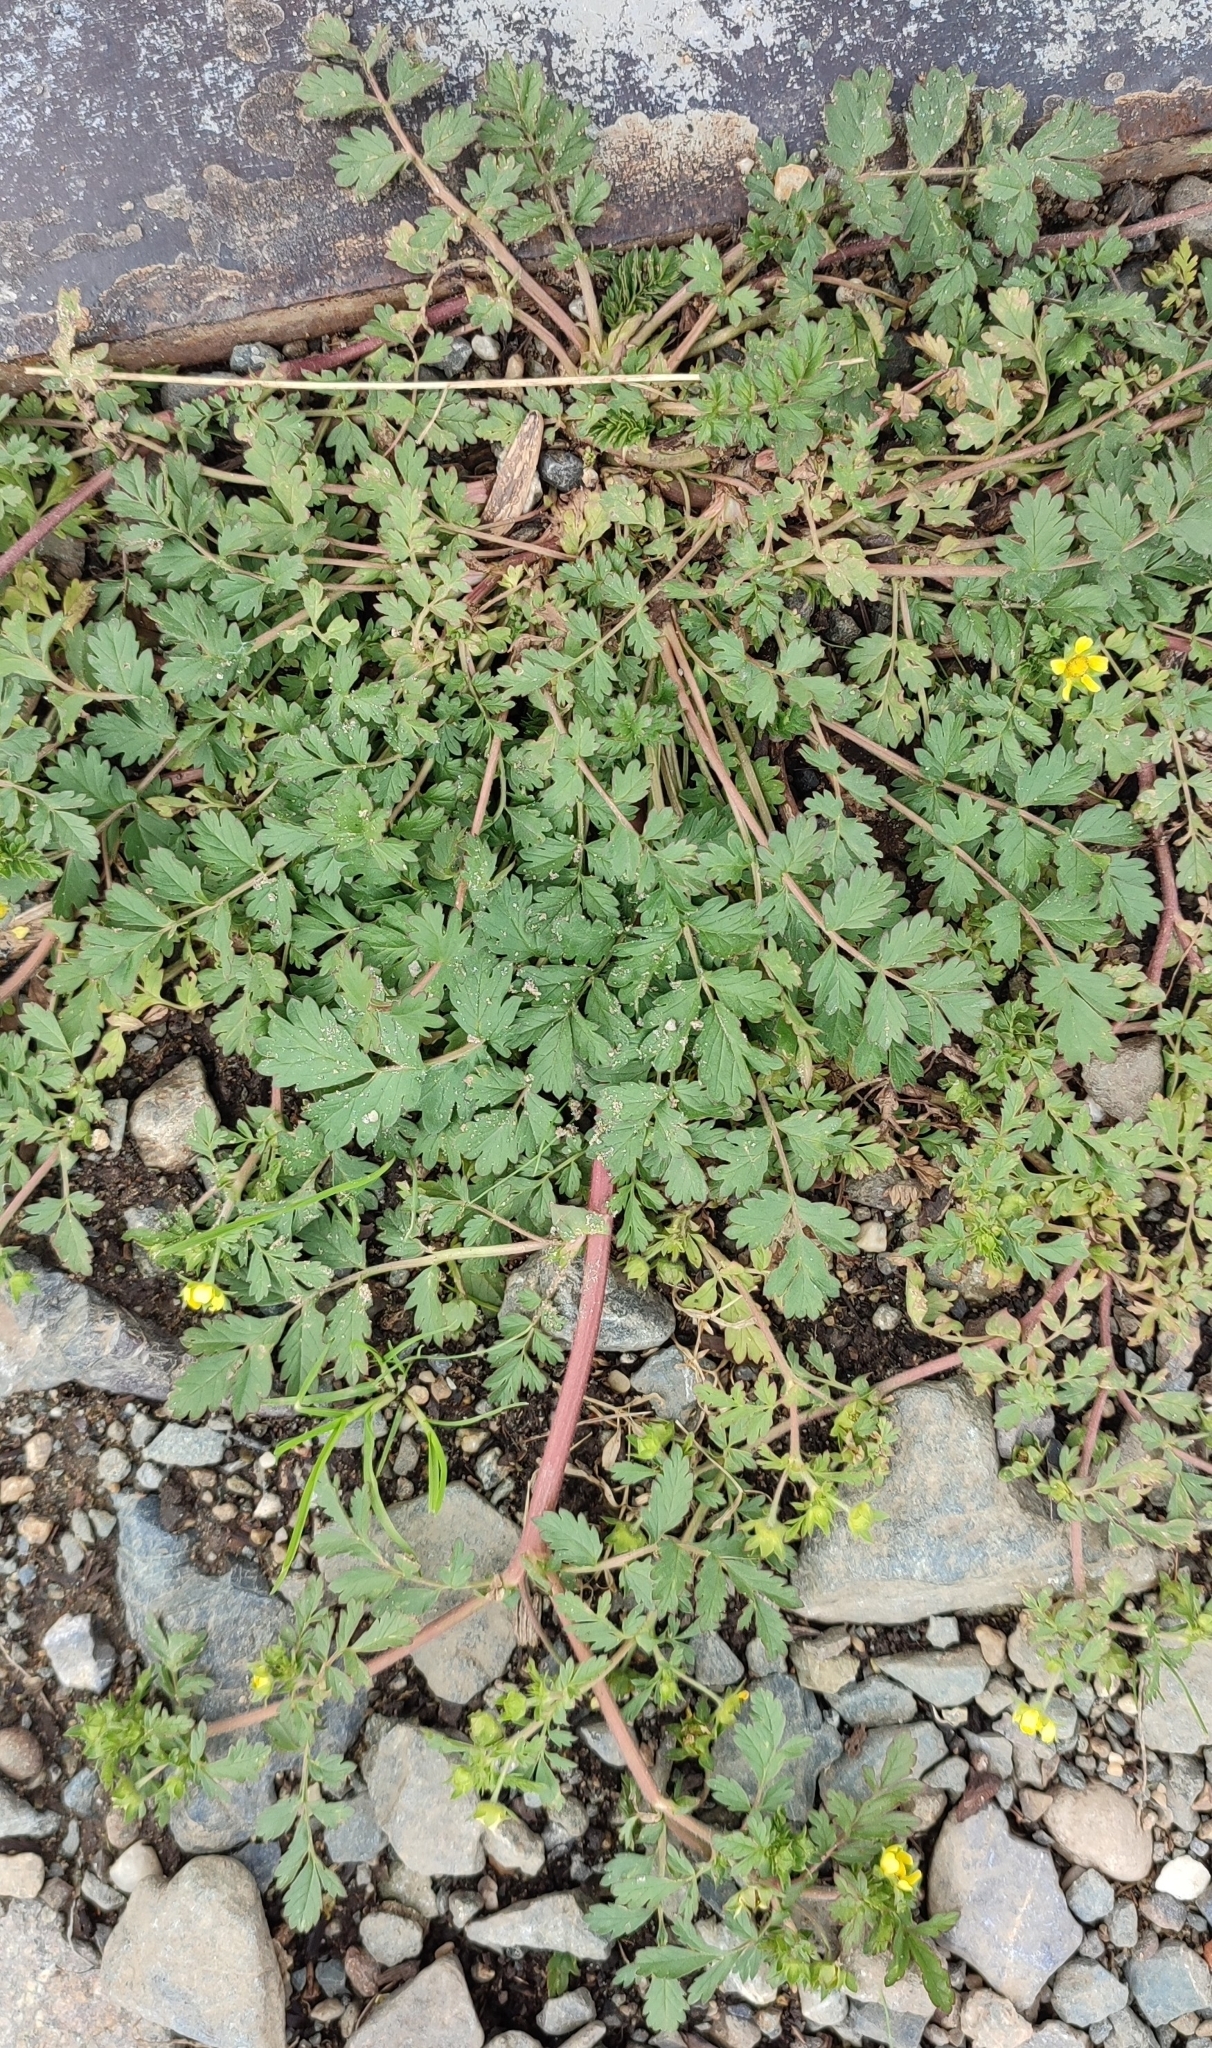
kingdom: Plantae
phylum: Tracheophyta
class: Magnoliopsida
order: Rosales
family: Rosaceae
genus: Potentilla
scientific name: Potentilla supina
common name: Prostrate cinquefoil
